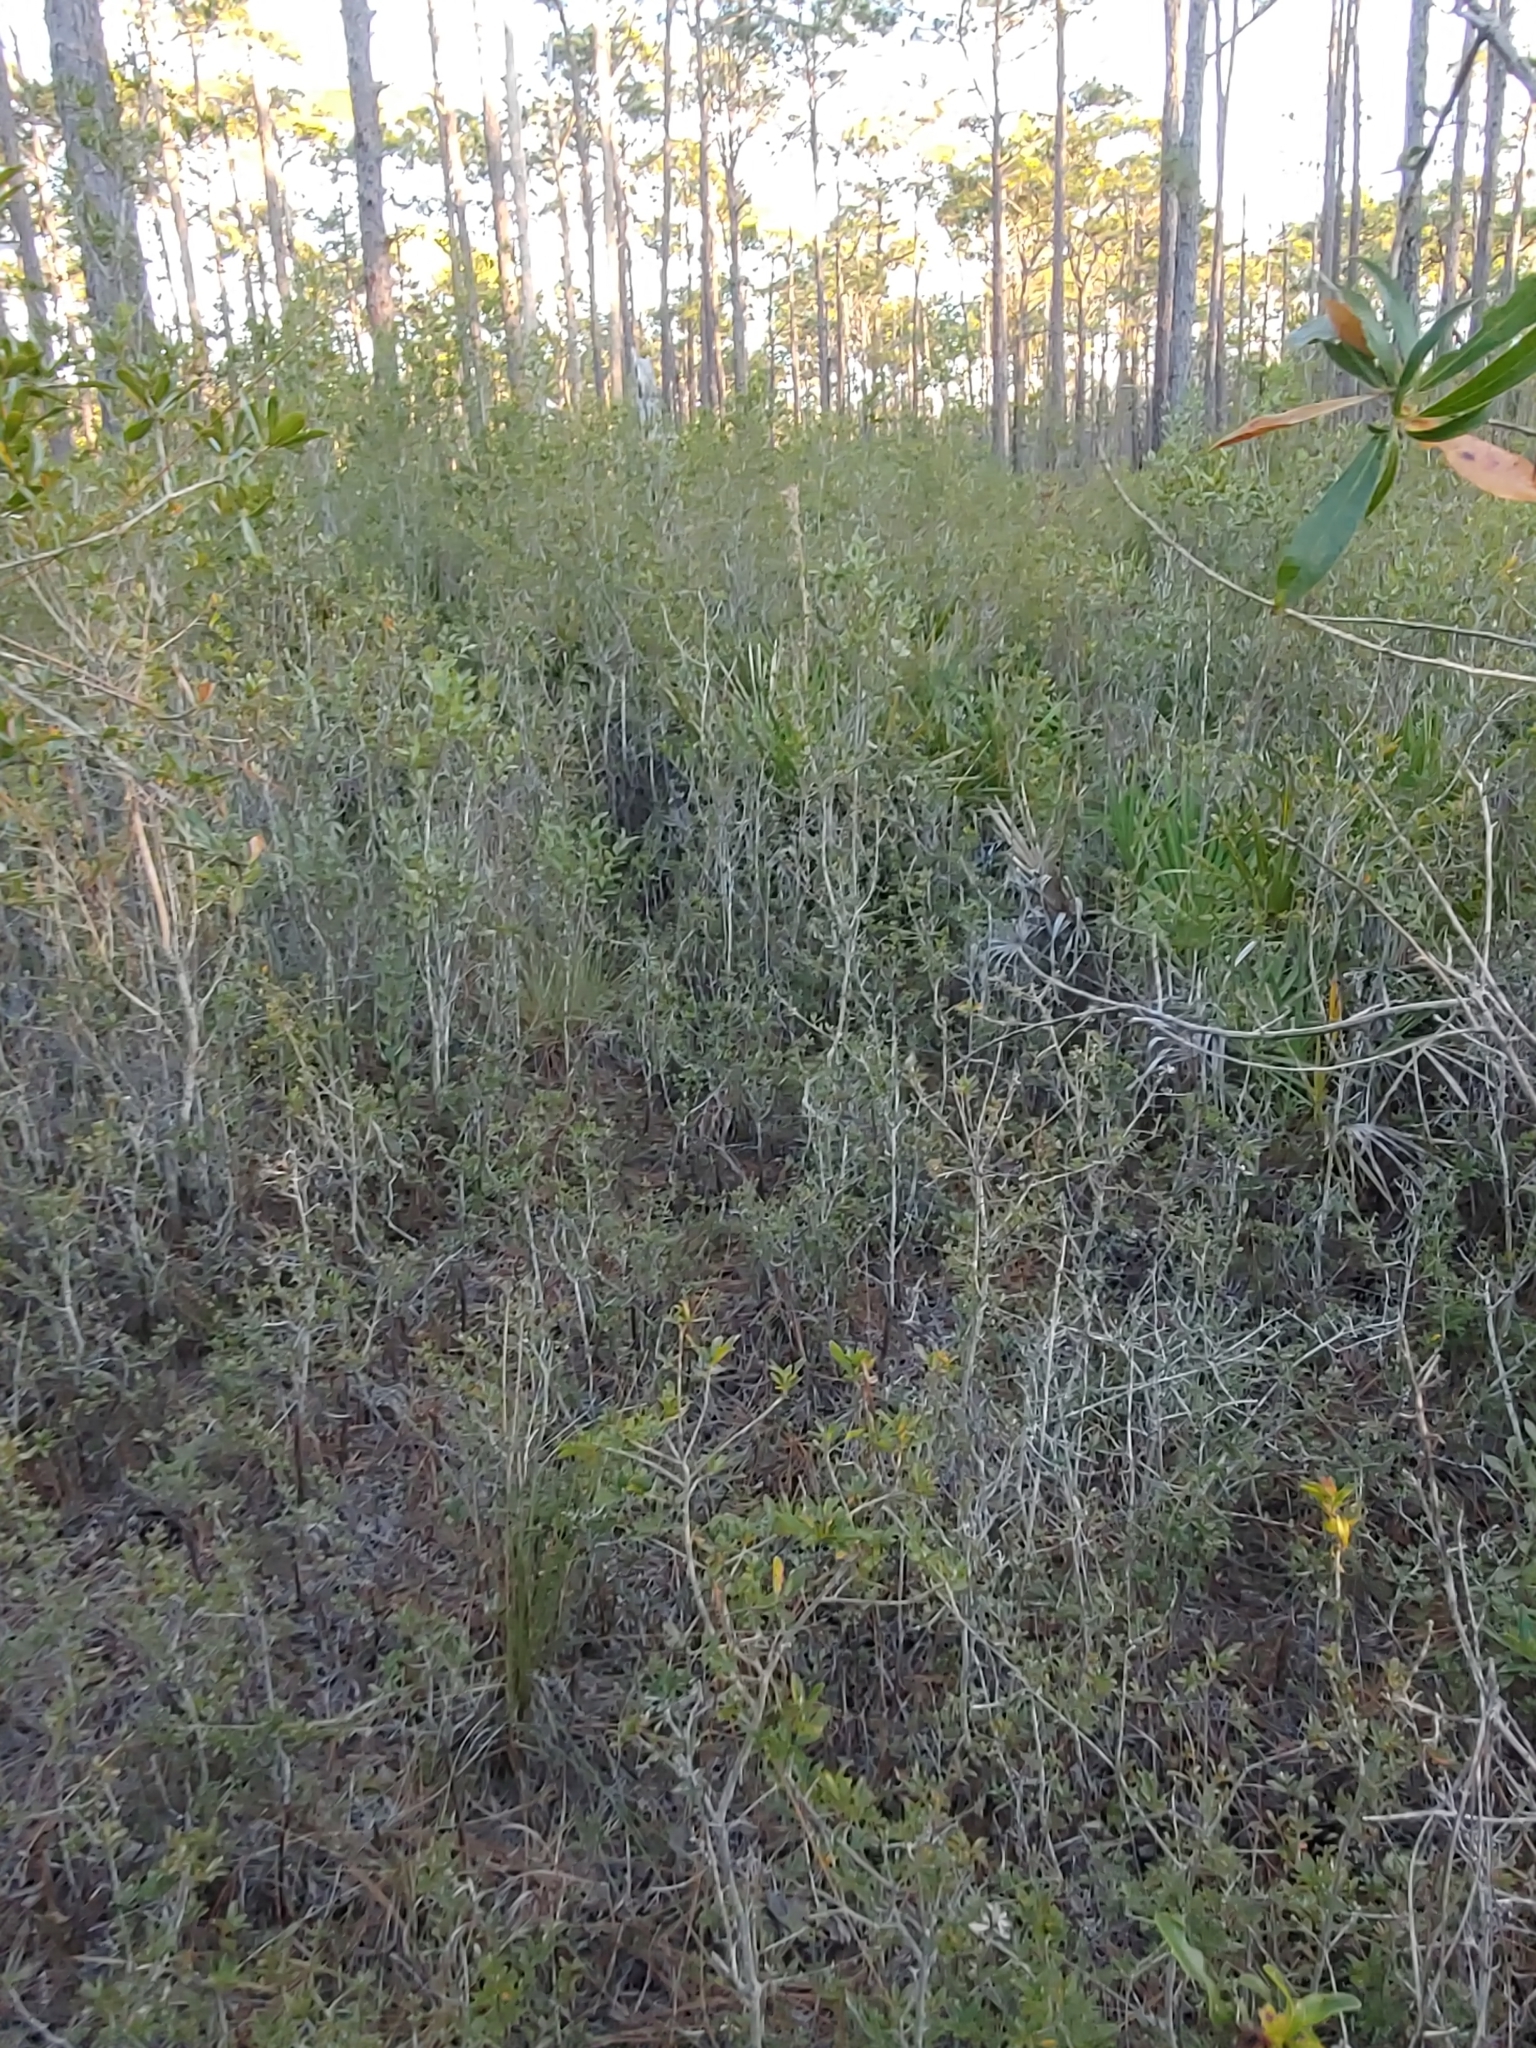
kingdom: Plantae
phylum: Tracheophyta
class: Magnoliopsida
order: Ericales
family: Cyrillaceae
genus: Cyrilla
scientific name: Cyrilla racemiflora
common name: Black titi
